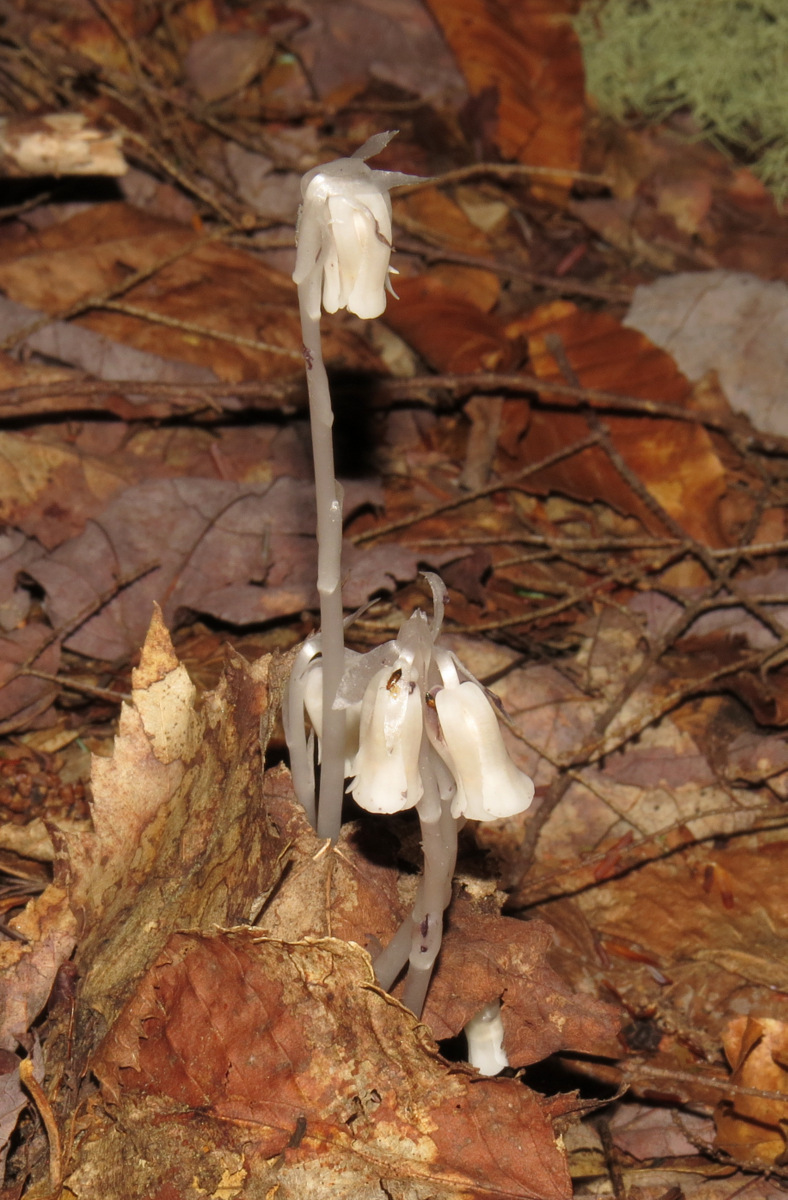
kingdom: Plantae
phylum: Tracheophyta
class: Magnoliopsida
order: Ericales
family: Ericaceae
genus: Monotropa
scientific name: Monotropa uniflora
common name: Convulsion root
